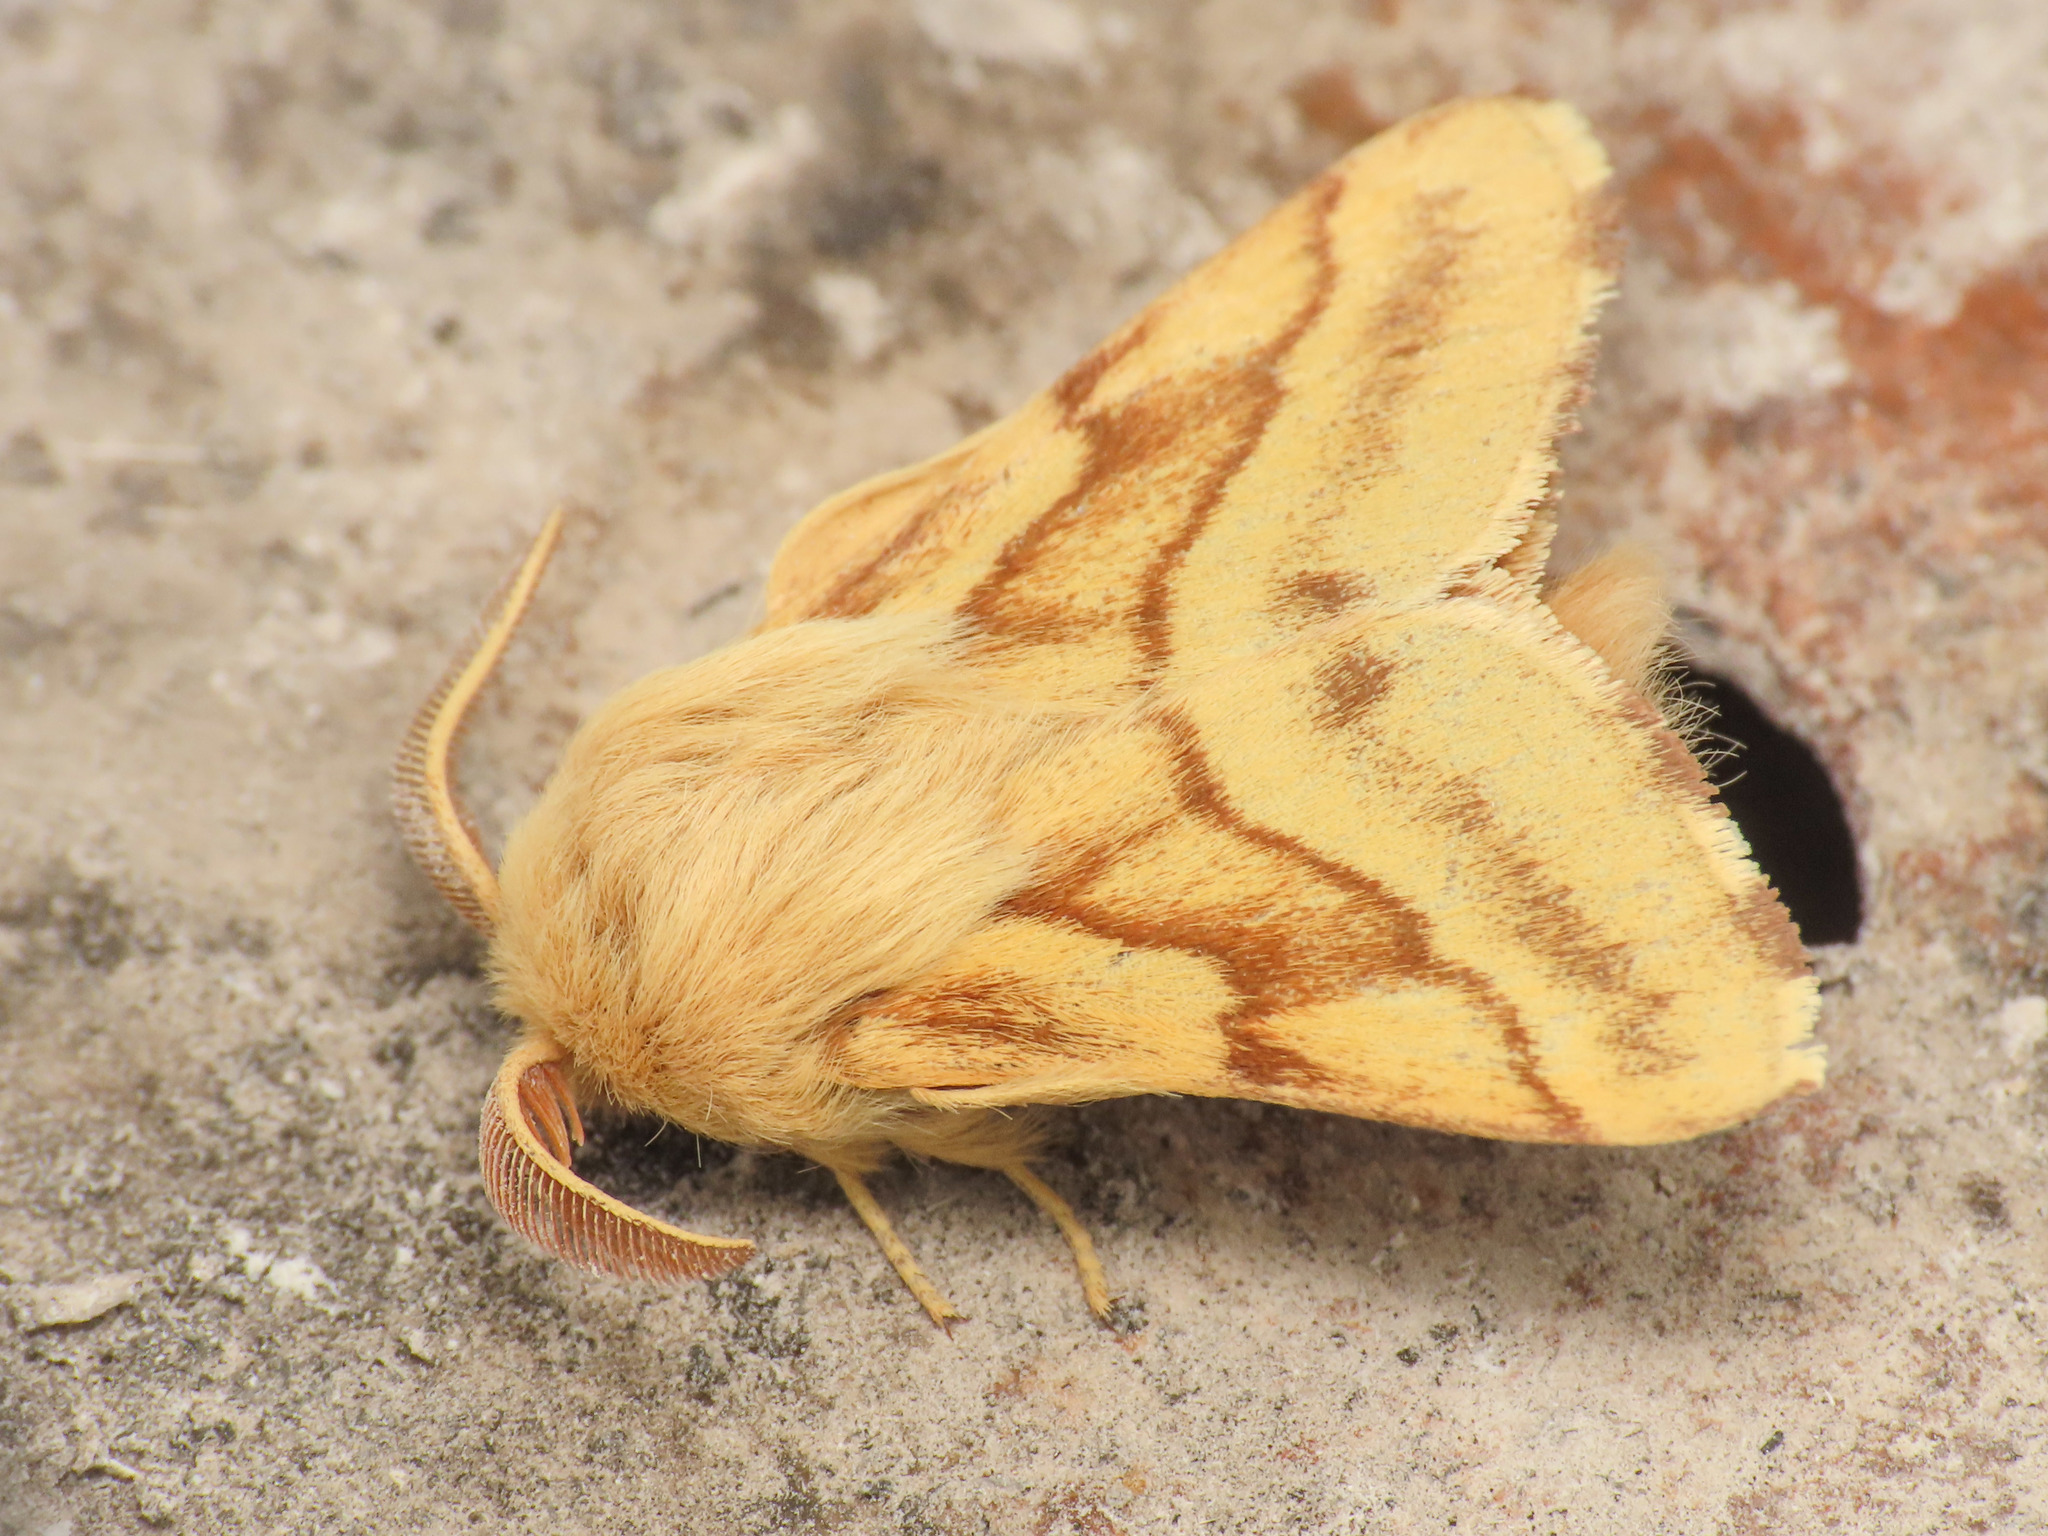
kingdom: Animalia
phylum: Arthropoda
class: Insecta
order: Lepidoptera
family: Lasiocampidae
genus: Malacosoma
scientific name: Malacosoma castrense
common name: Ground lackey
